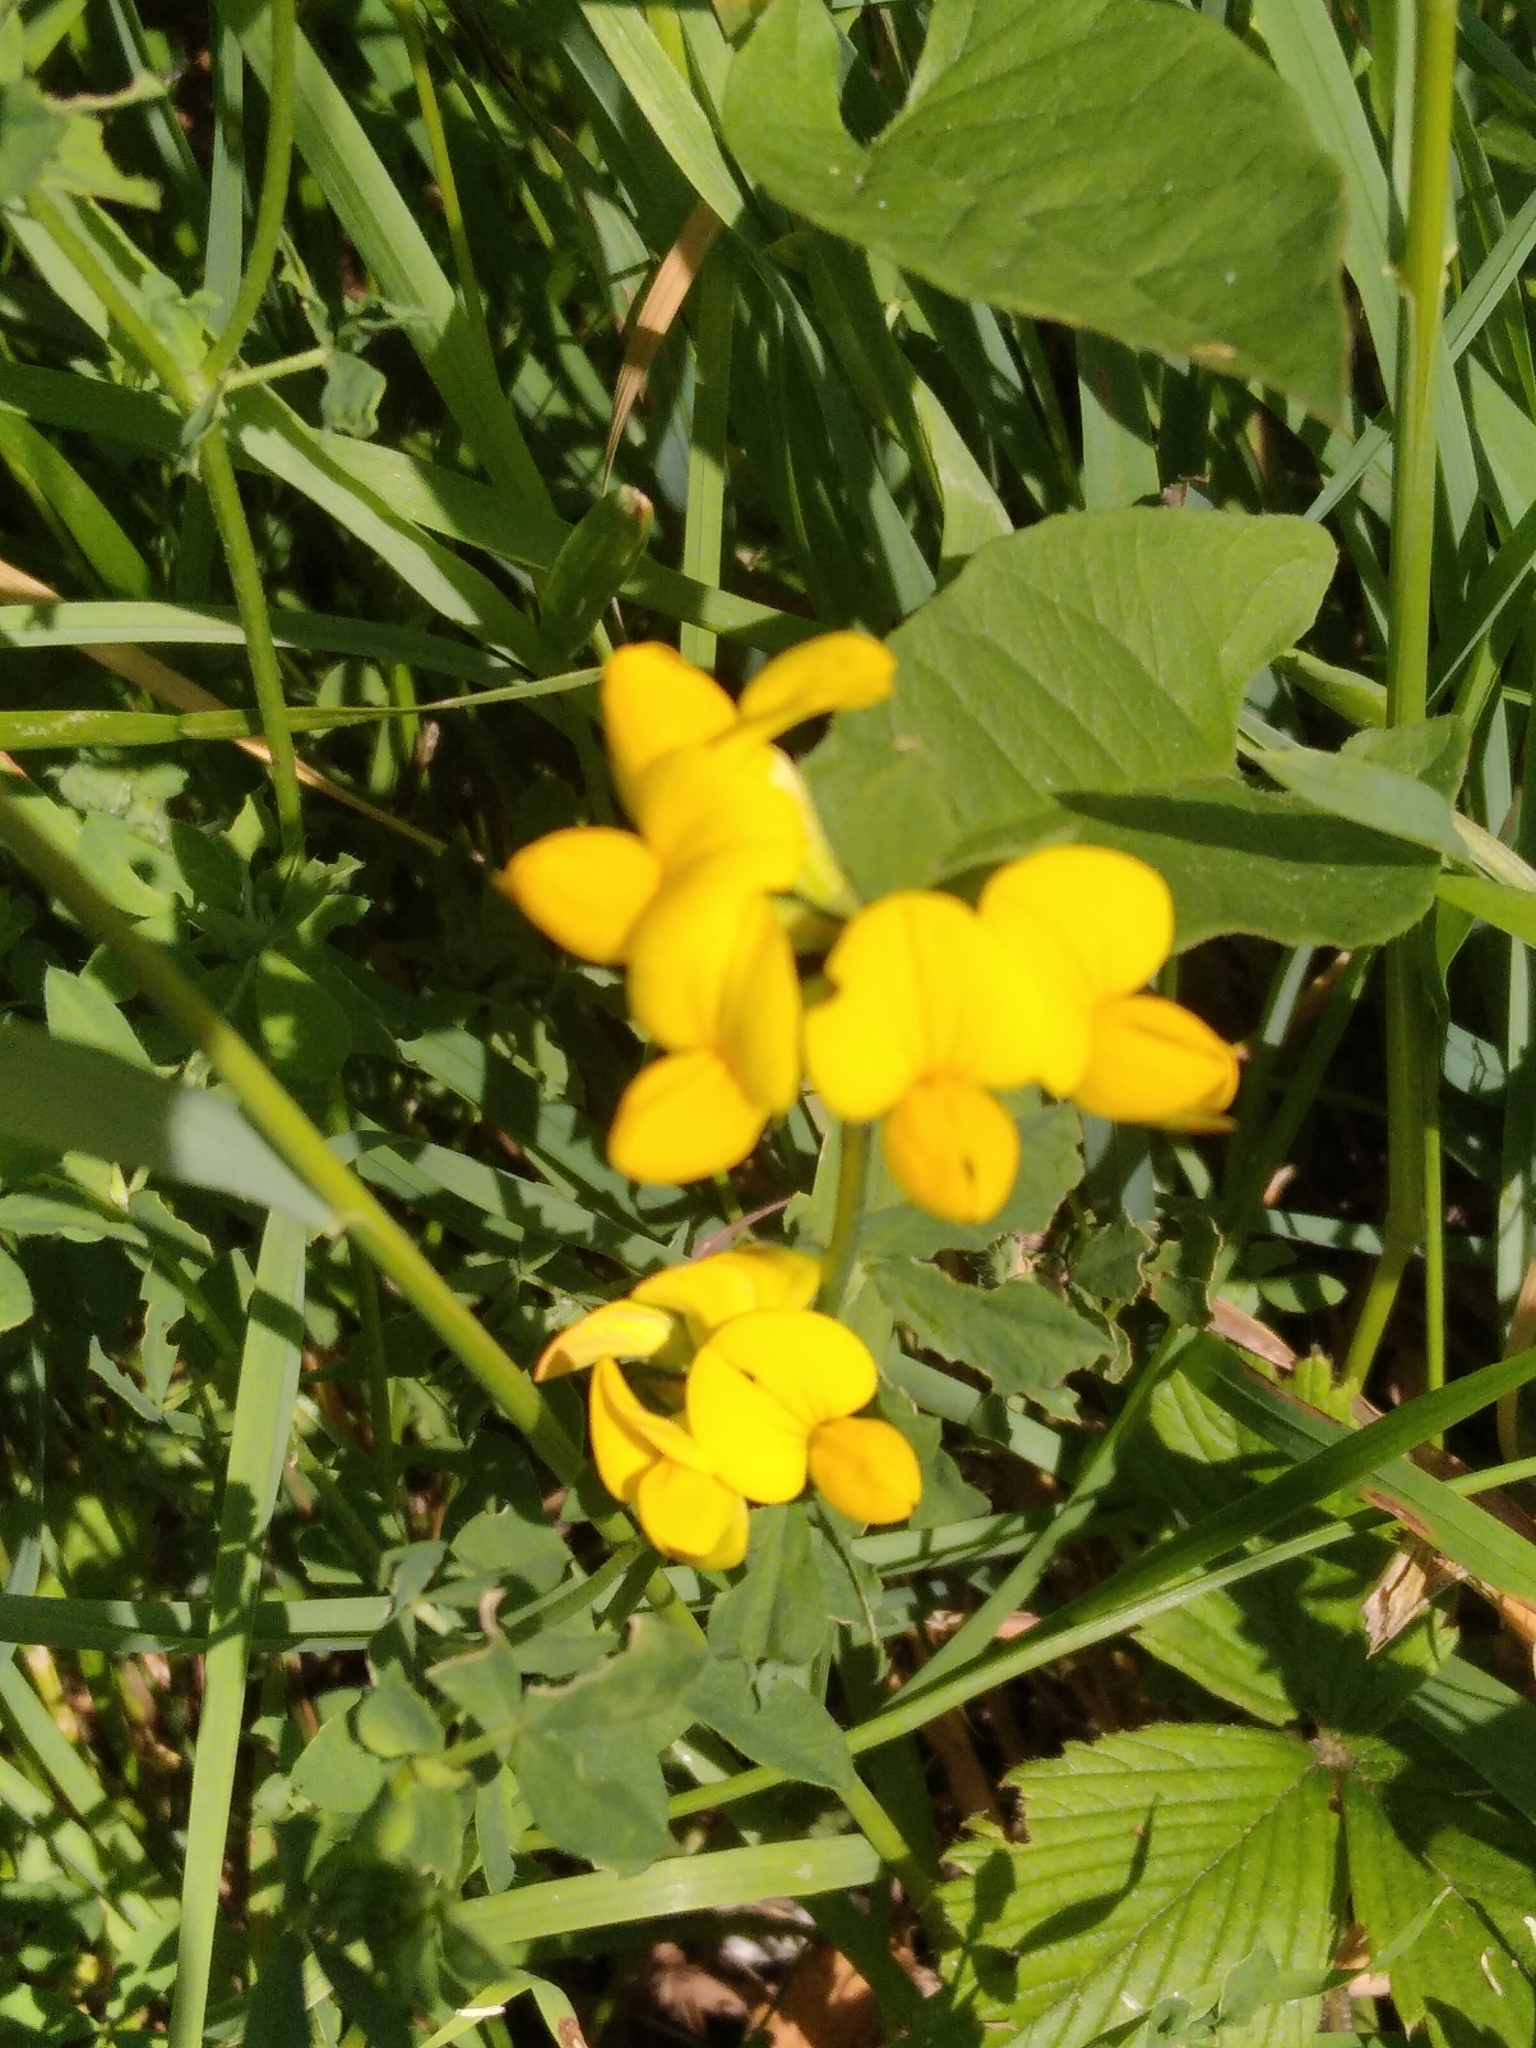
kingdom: Plantae
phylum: Tracheophyta
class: Magnoliopsida
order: Fabales
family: Fabaceae
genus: Lotus
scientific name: Lotus corniculatus
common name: Common bird's-foot-trefoil
